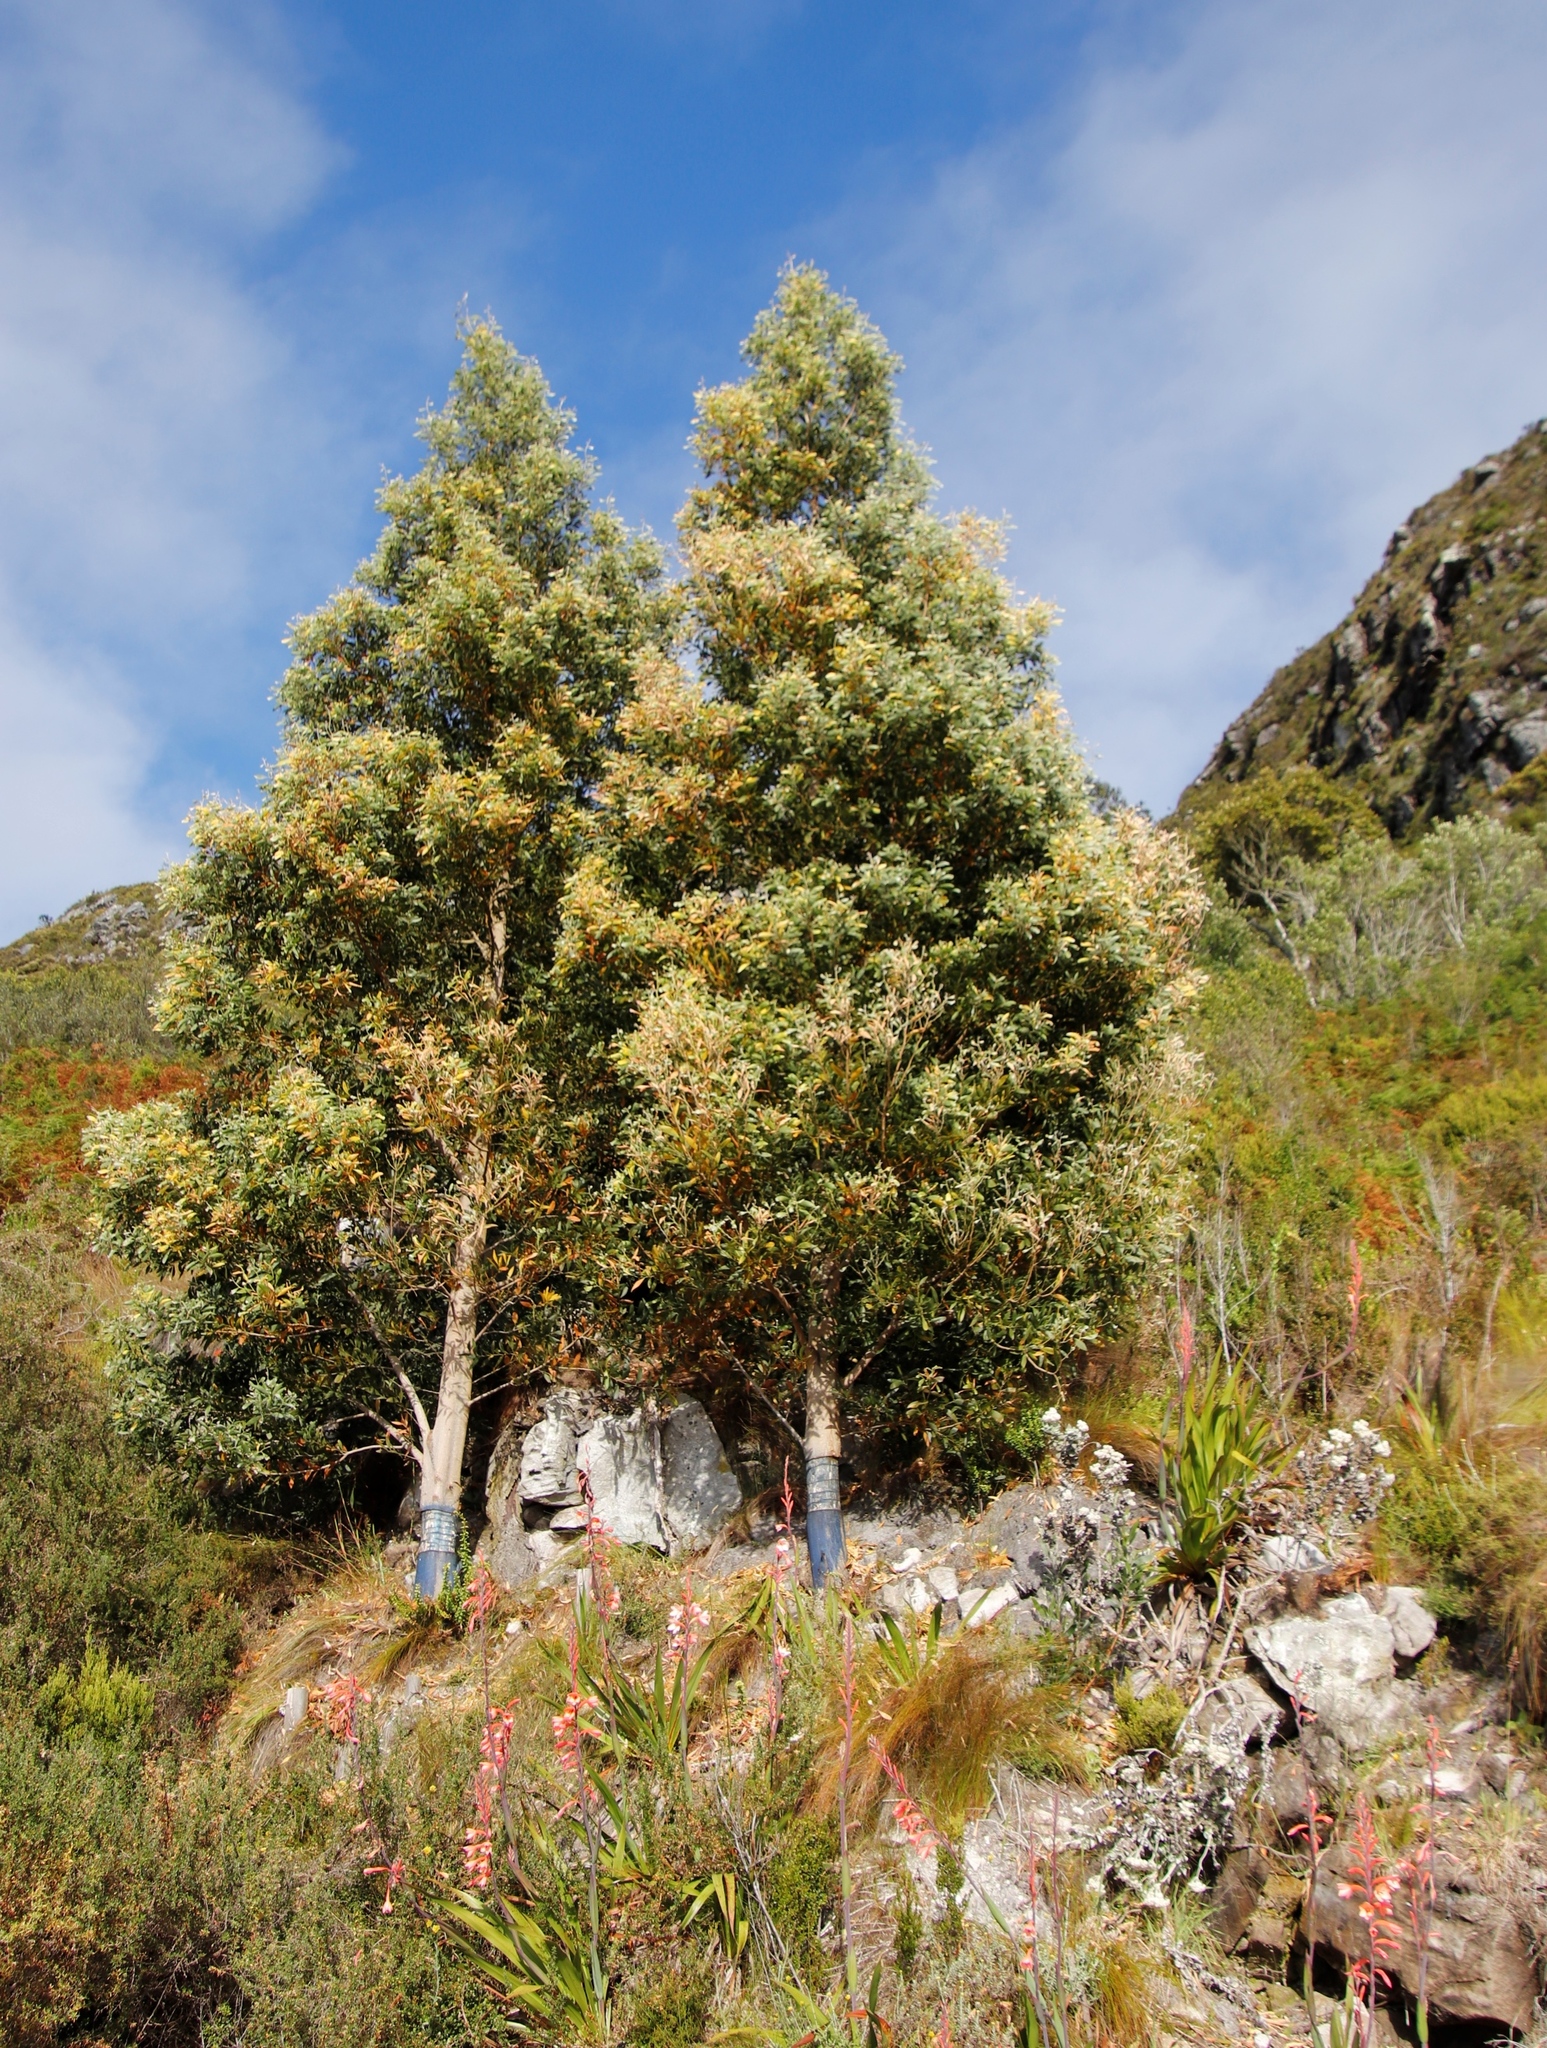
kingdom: Plantae
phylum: Tracheophyta
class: Magnoliopsida
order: Fabales
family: Fabaceae
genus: Acacia
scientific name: Acacia melanoxylon
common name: Blackwood
